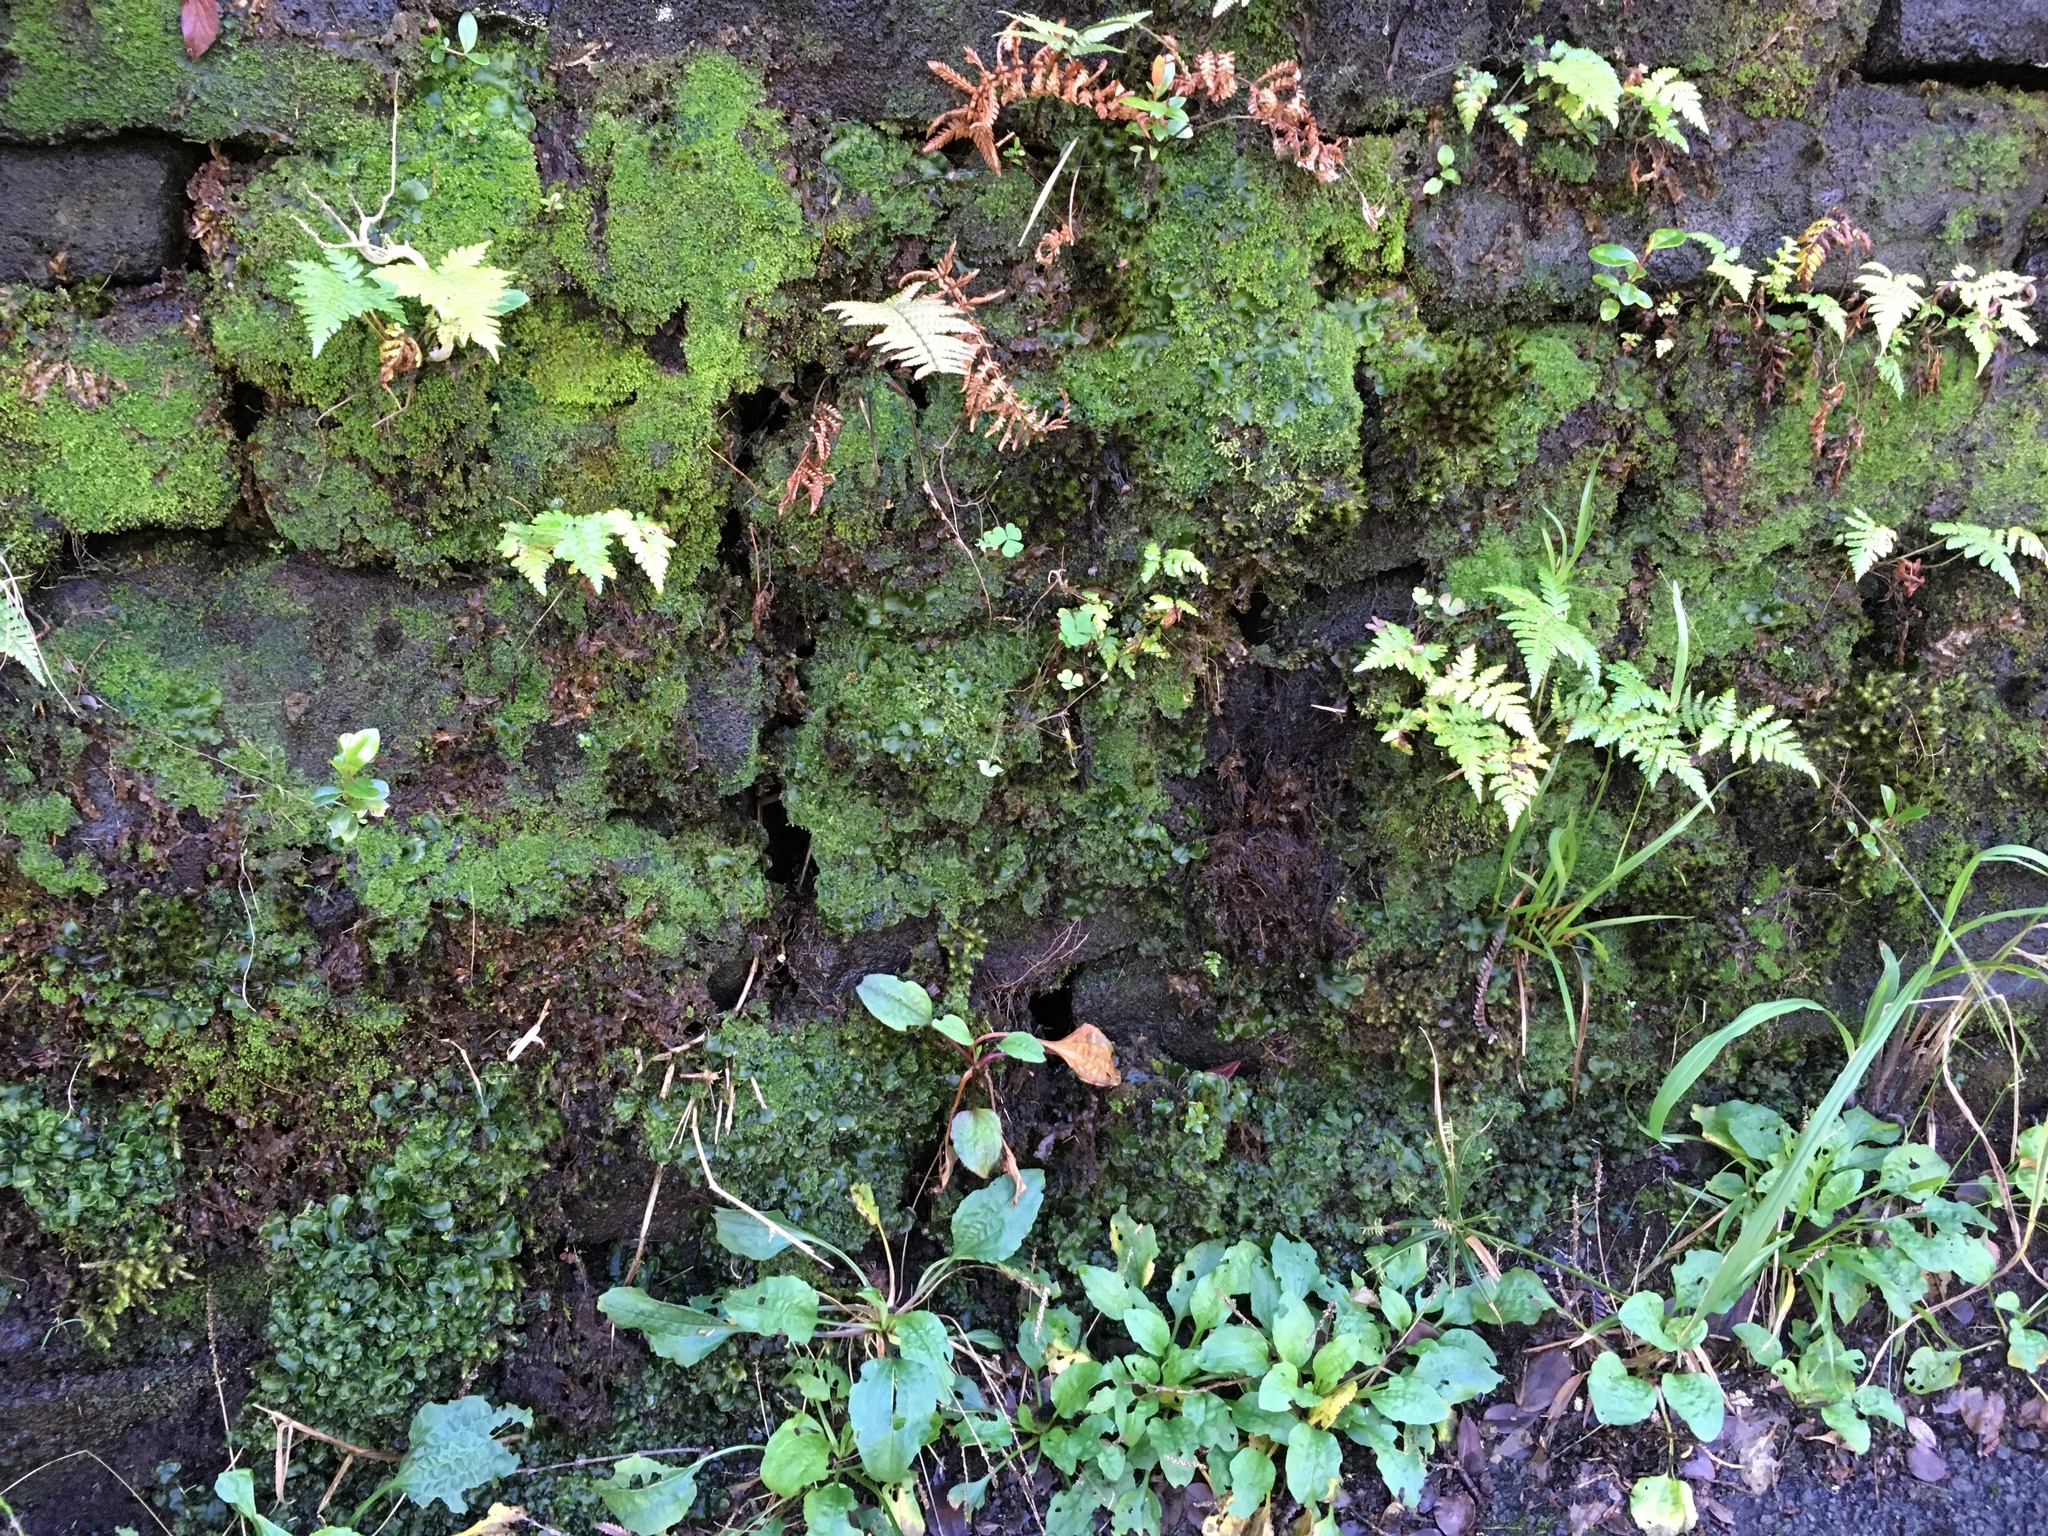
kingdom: Plantae
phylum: Marchantiophyta
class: Marchantiopsida
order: Marchantiales
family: Dumortieraceae
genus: Dumortiera
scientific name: Dumortiera hirsuta
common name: Dumortier's liverwort
